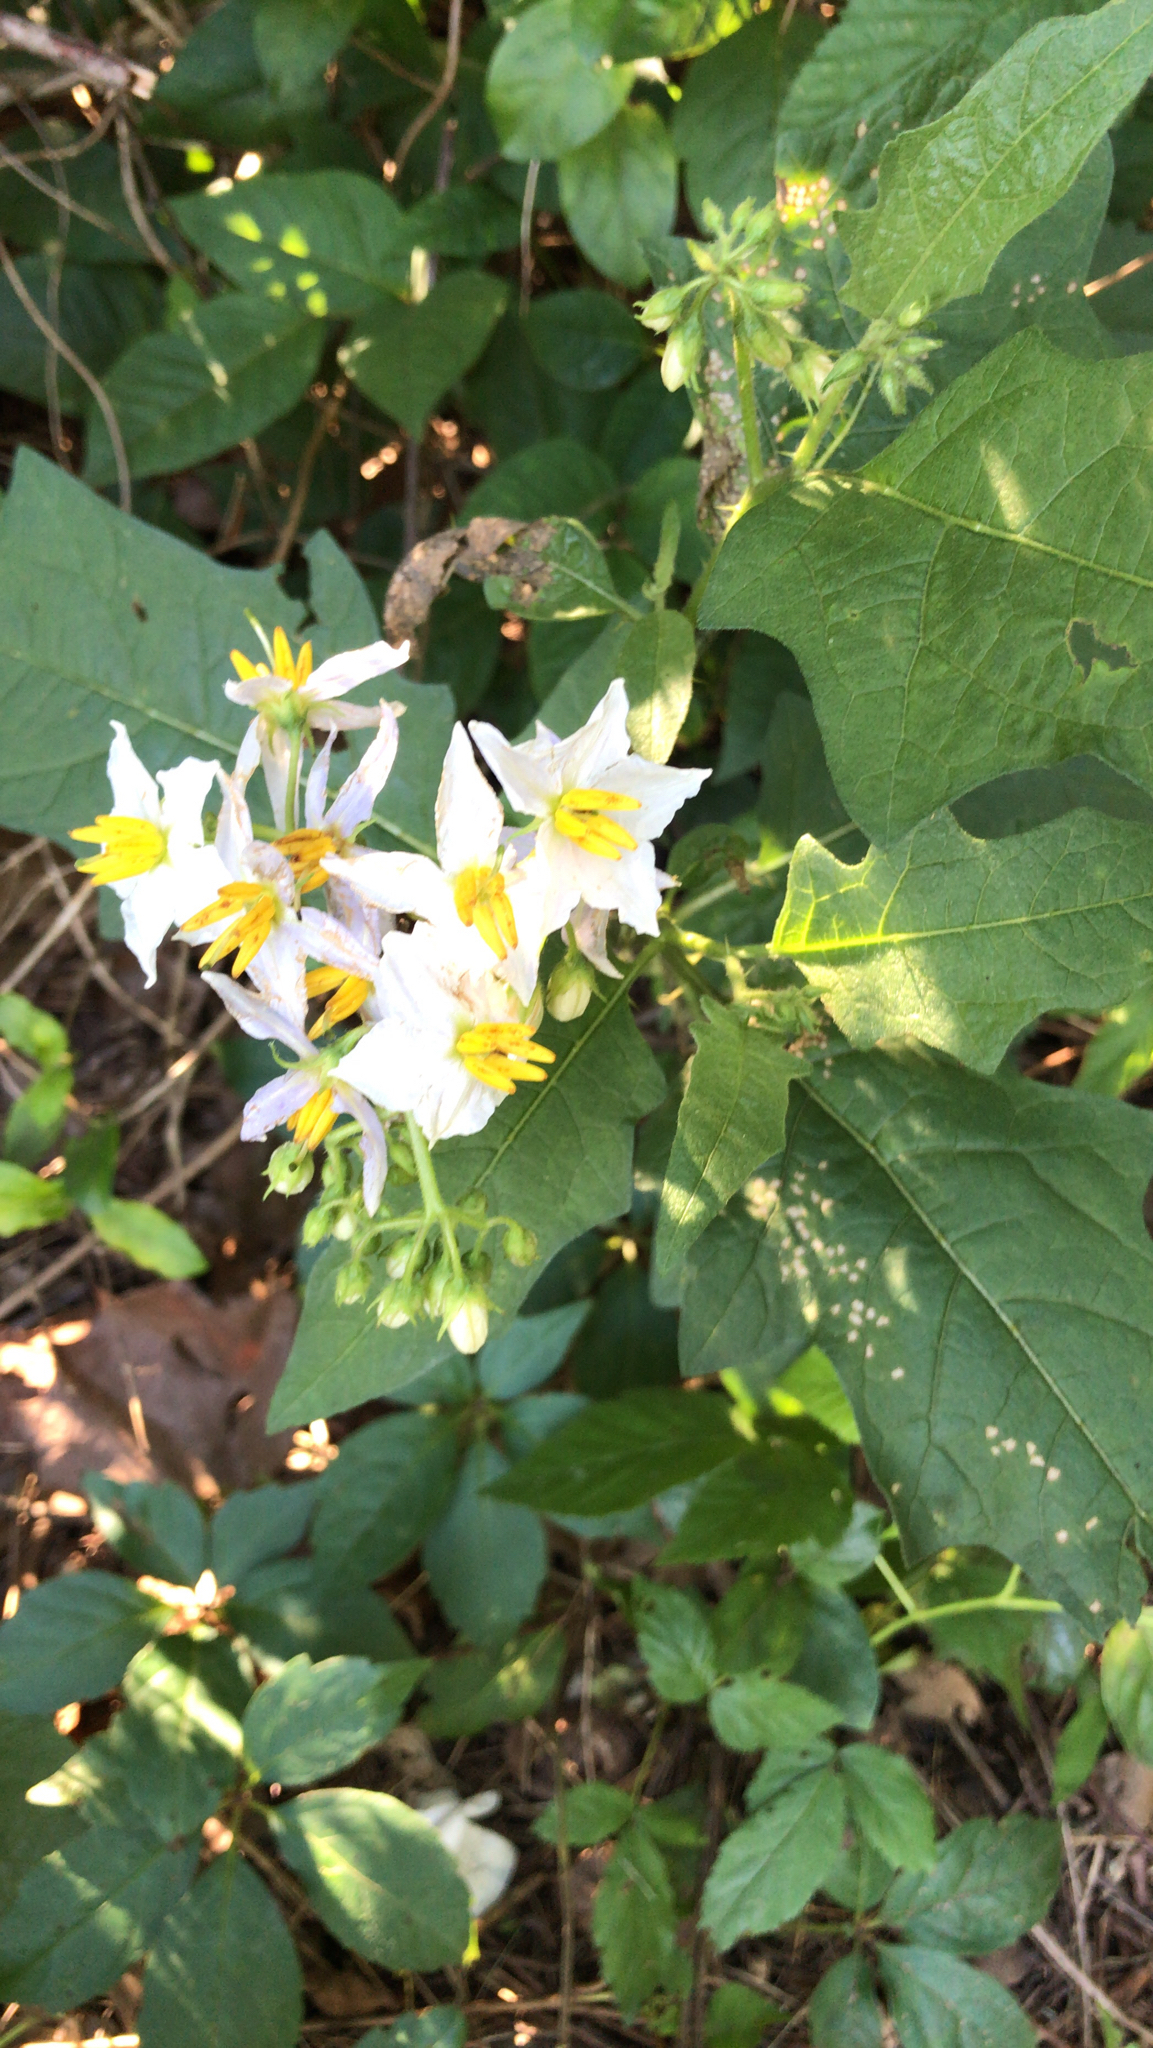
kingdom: Plantae
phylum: Tracheophyta
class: Magnoliopsida
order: Solanales
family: Solanaceae
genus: Solanum
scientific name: Solanum carolinense
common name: Horse-nettle
